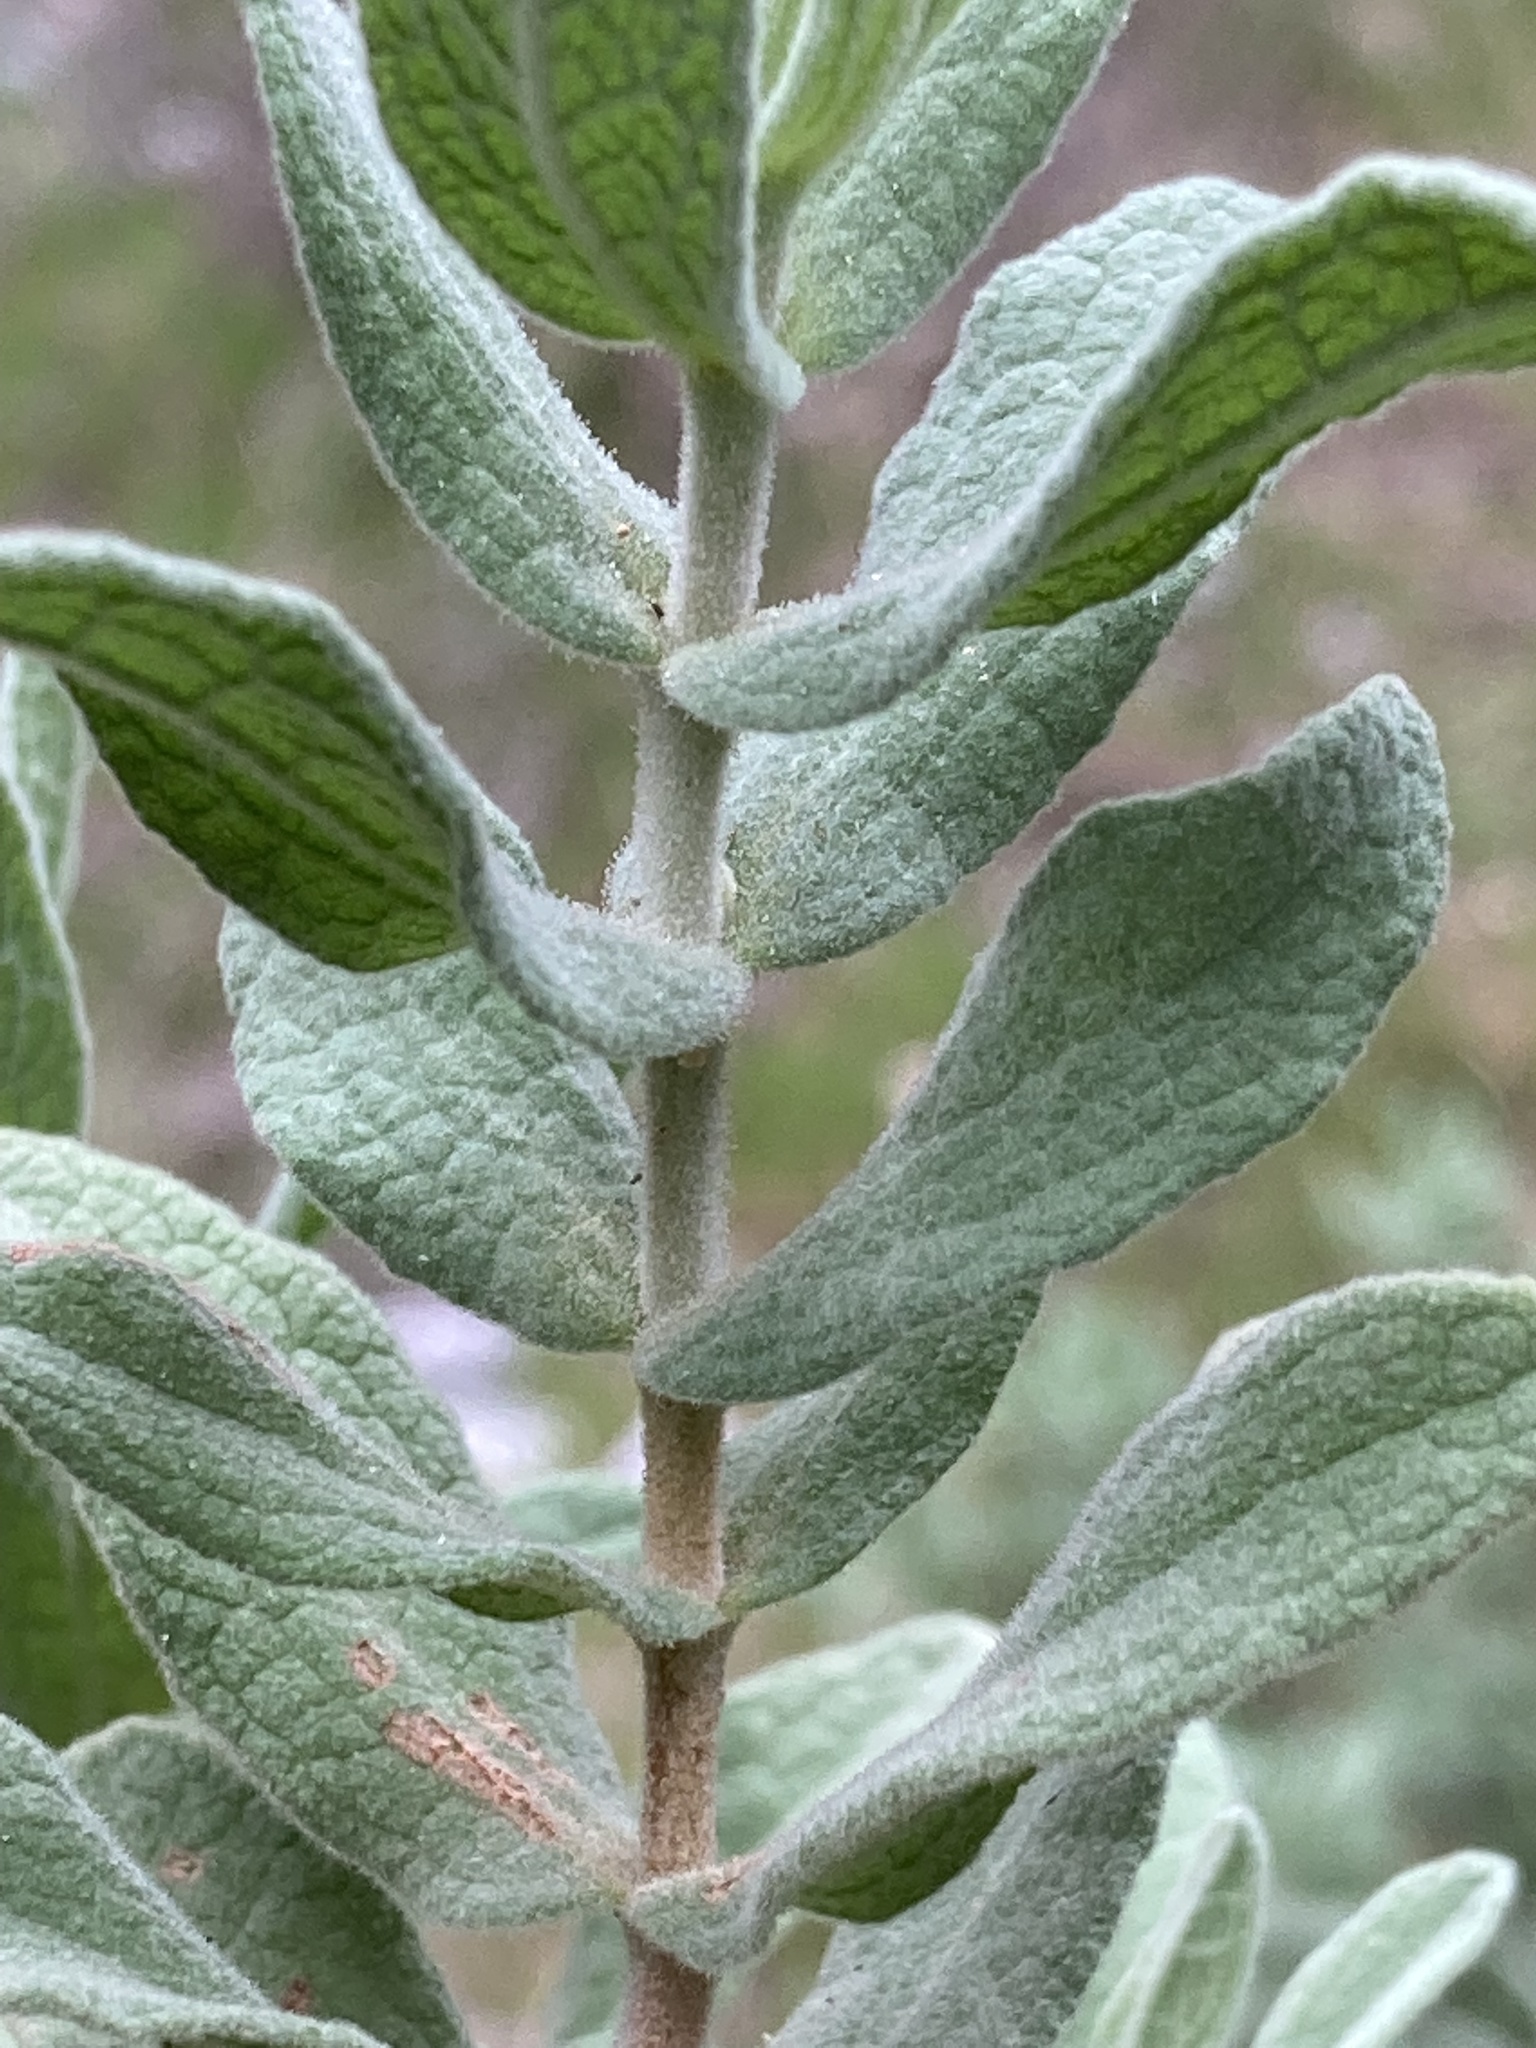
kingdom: Plantae
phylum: Tracheophyta
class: Magnoliopsida
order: Malvales
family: Cistaceae
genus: Cistus
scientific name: Cistus albidus
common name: White-leaf rock-rose
